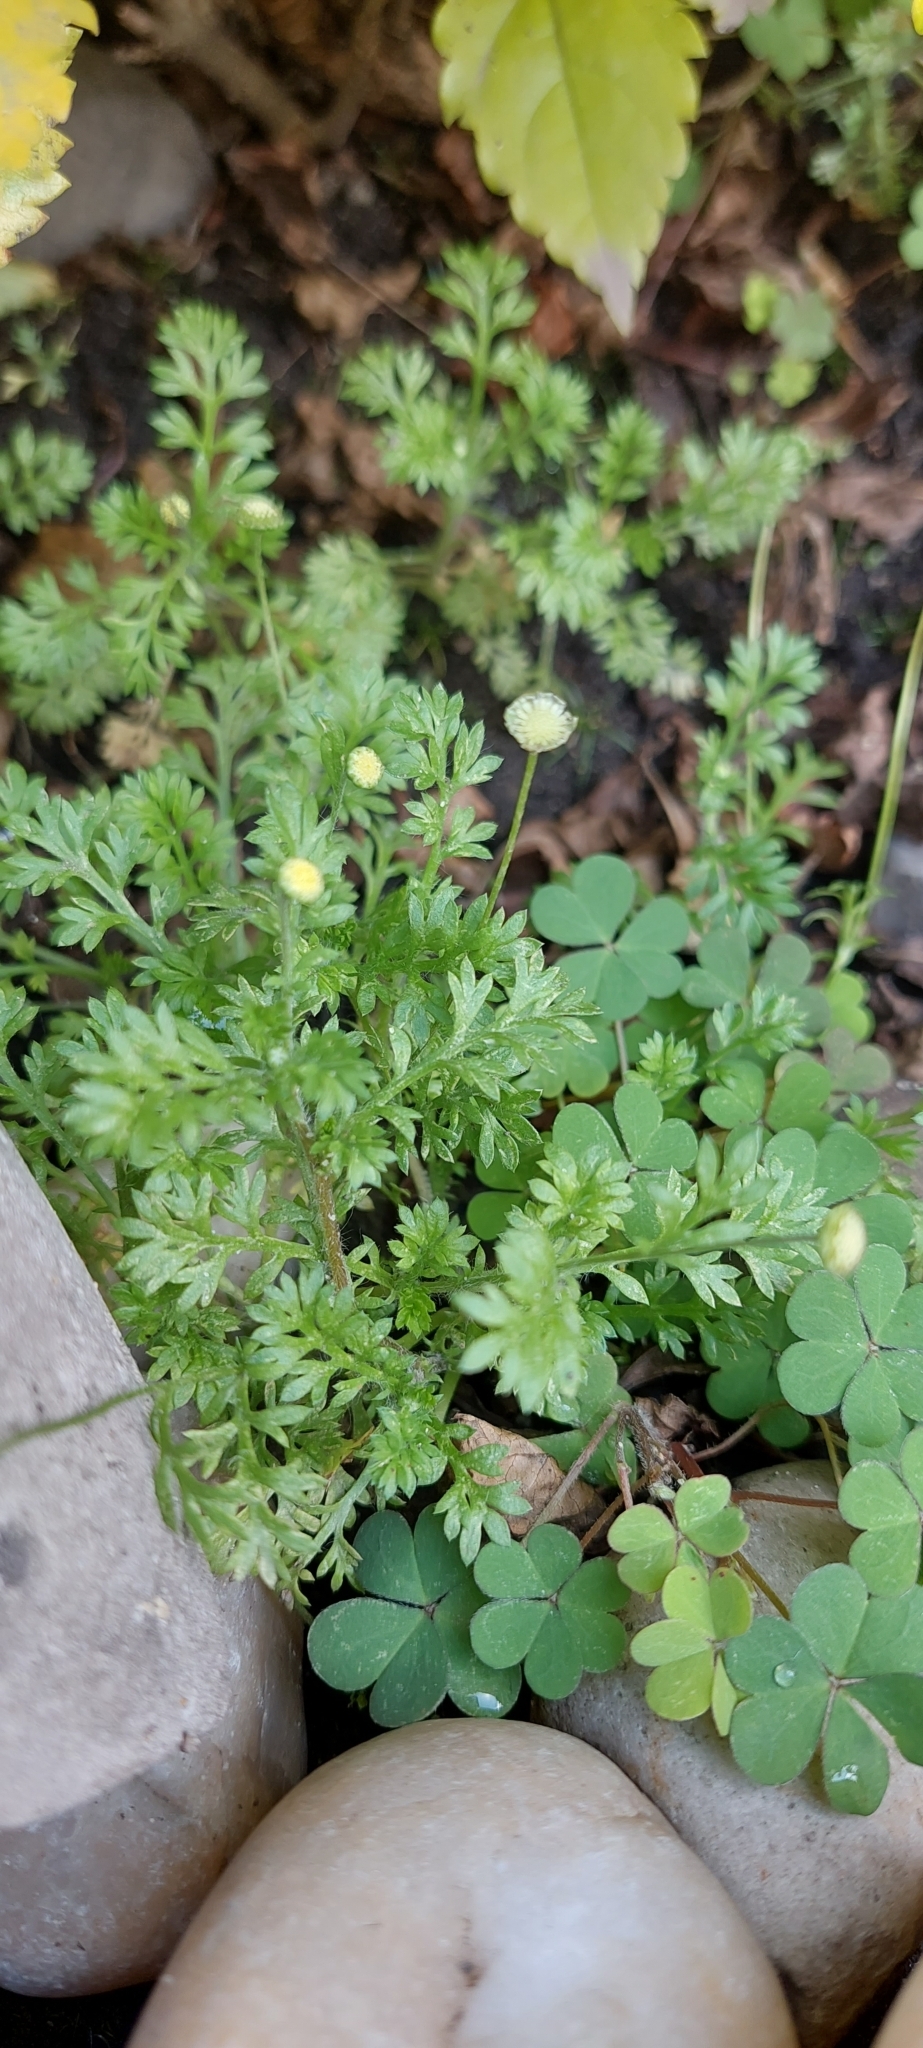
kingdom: Plantae
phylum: Tracheophyta
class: Magnoliopsida
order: Asterales
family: Asteraceae
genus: Cotula
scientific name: Cotula australis
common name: Australian waterbuttons
